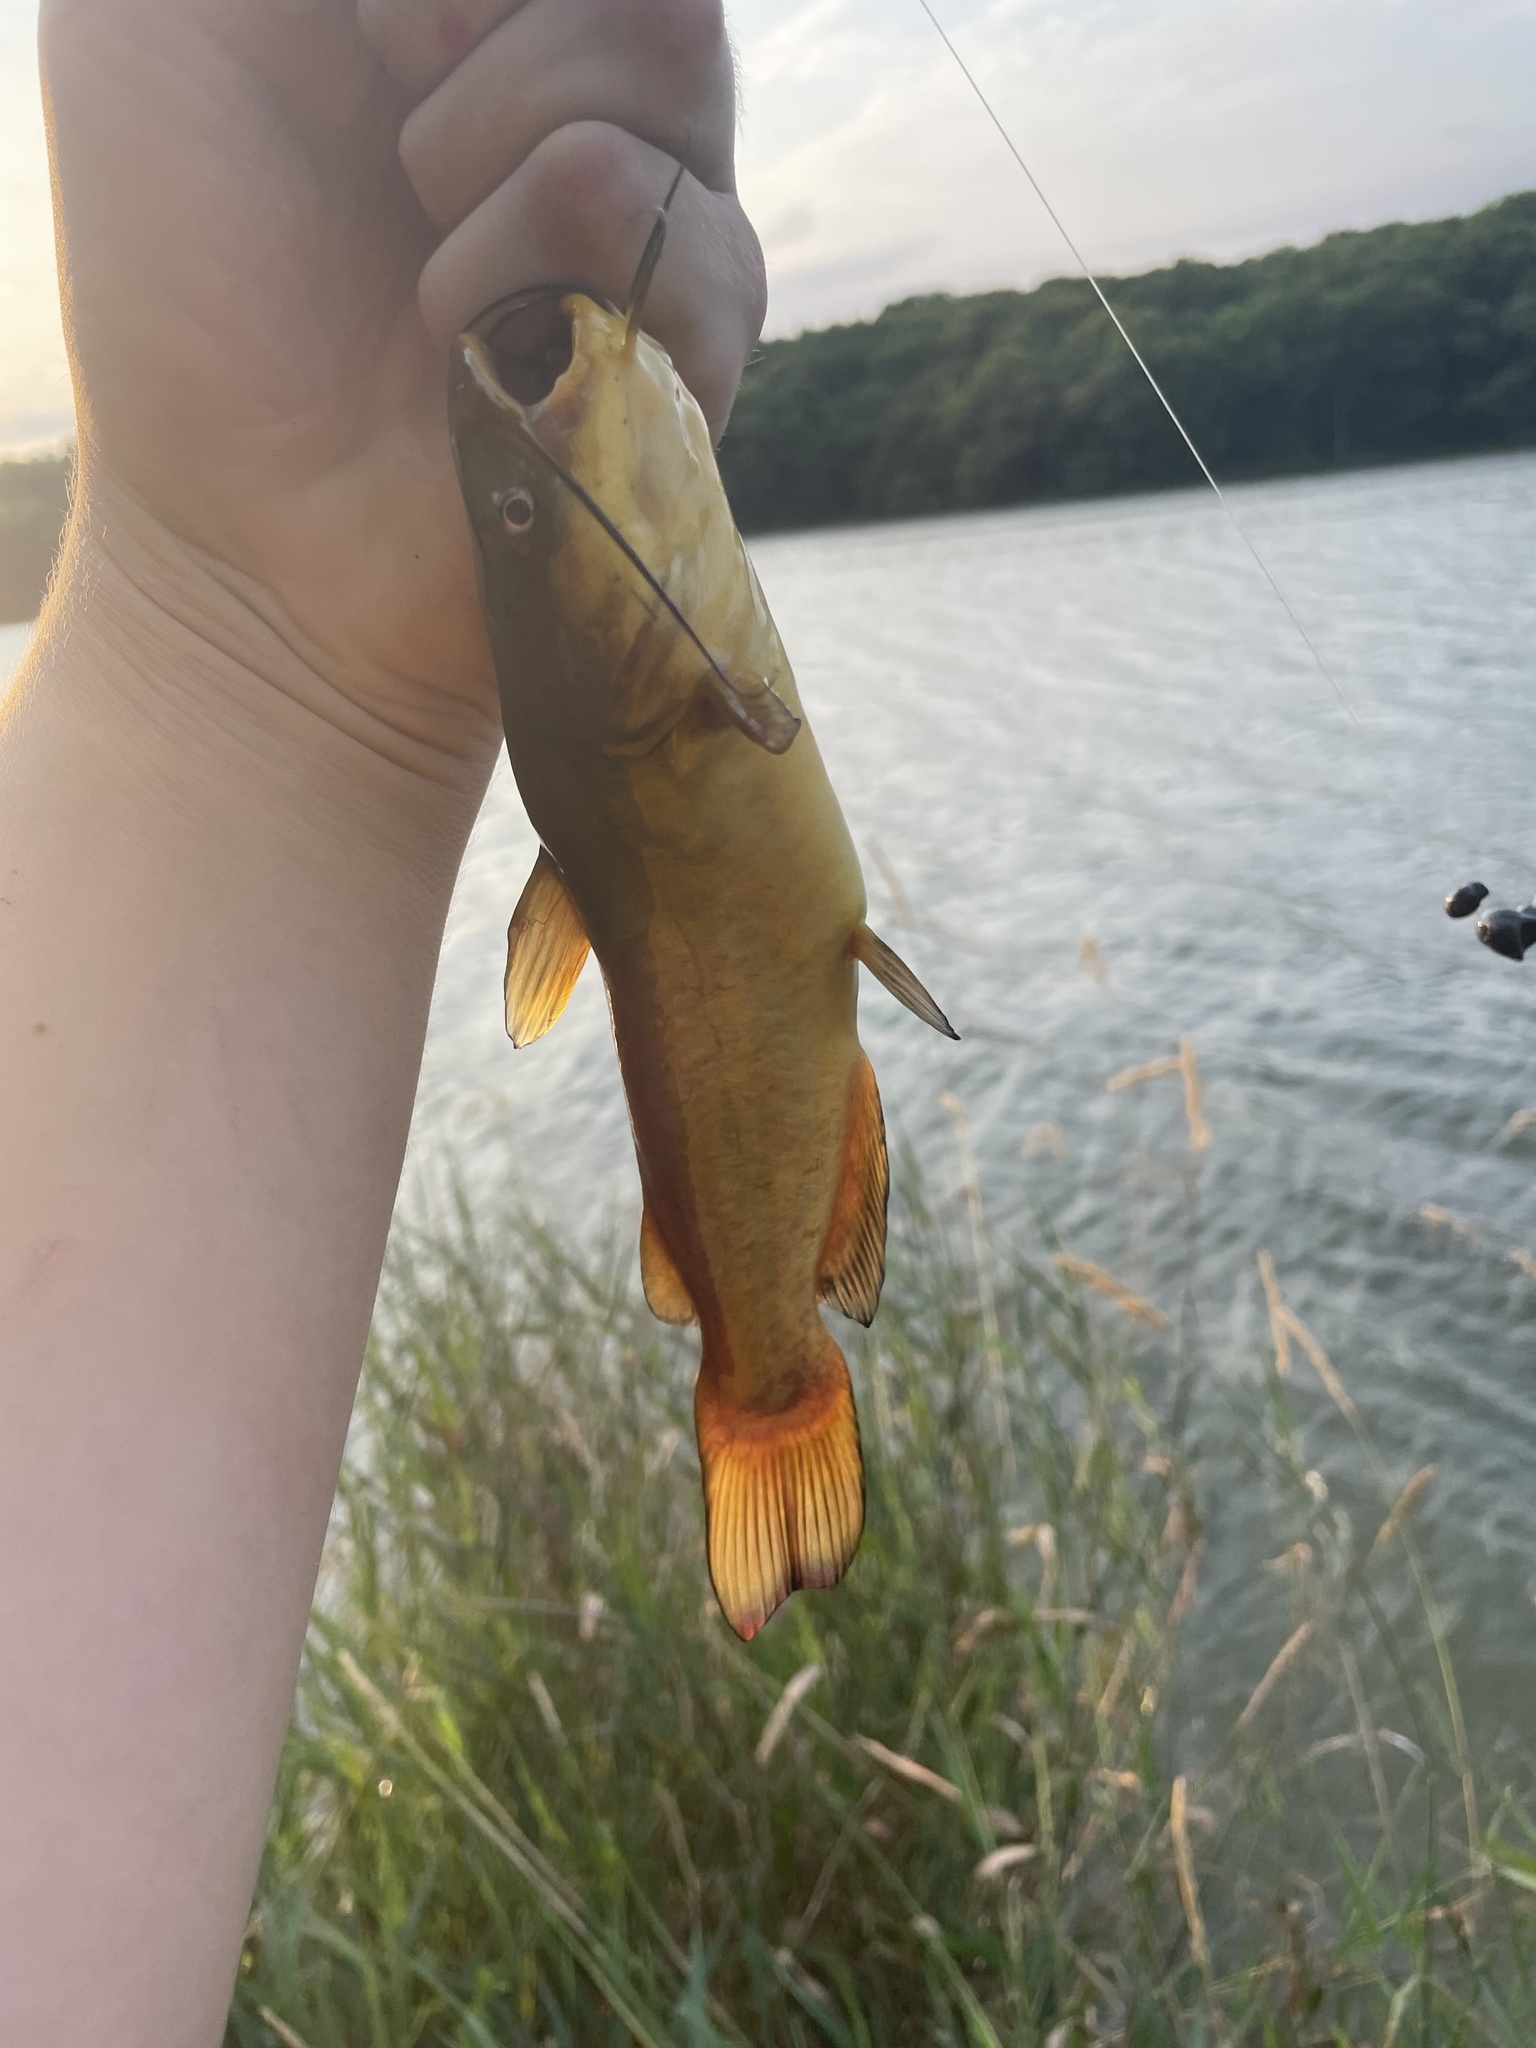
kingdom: Animalia
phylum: Chordata
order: Siluriformes
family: Ictaluridae
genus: Ameiurus
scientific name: Ameiurus melas
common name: Black bullhead
